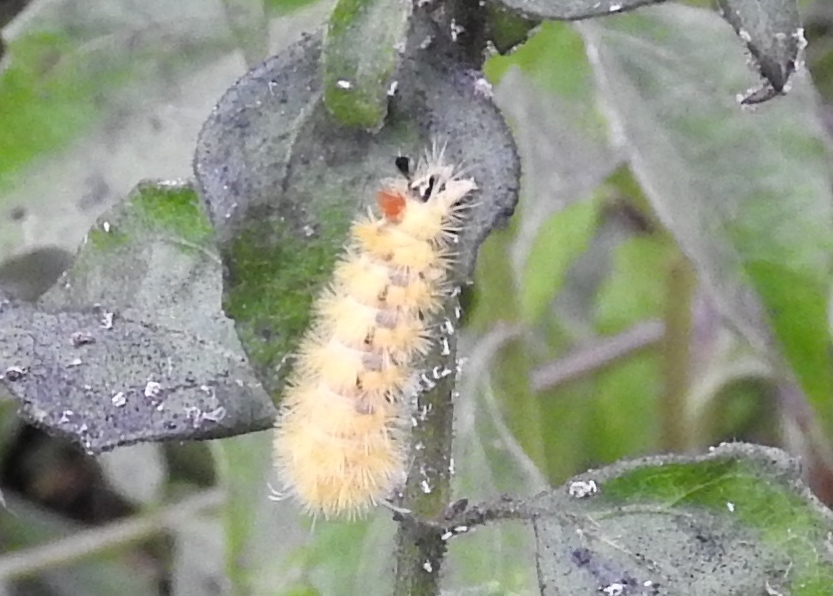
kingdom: Animalia
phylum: Arthropoda
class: Insecta
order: Lepidoptera
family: Erebidae
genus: Lophocampa
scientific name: Lophocampa
